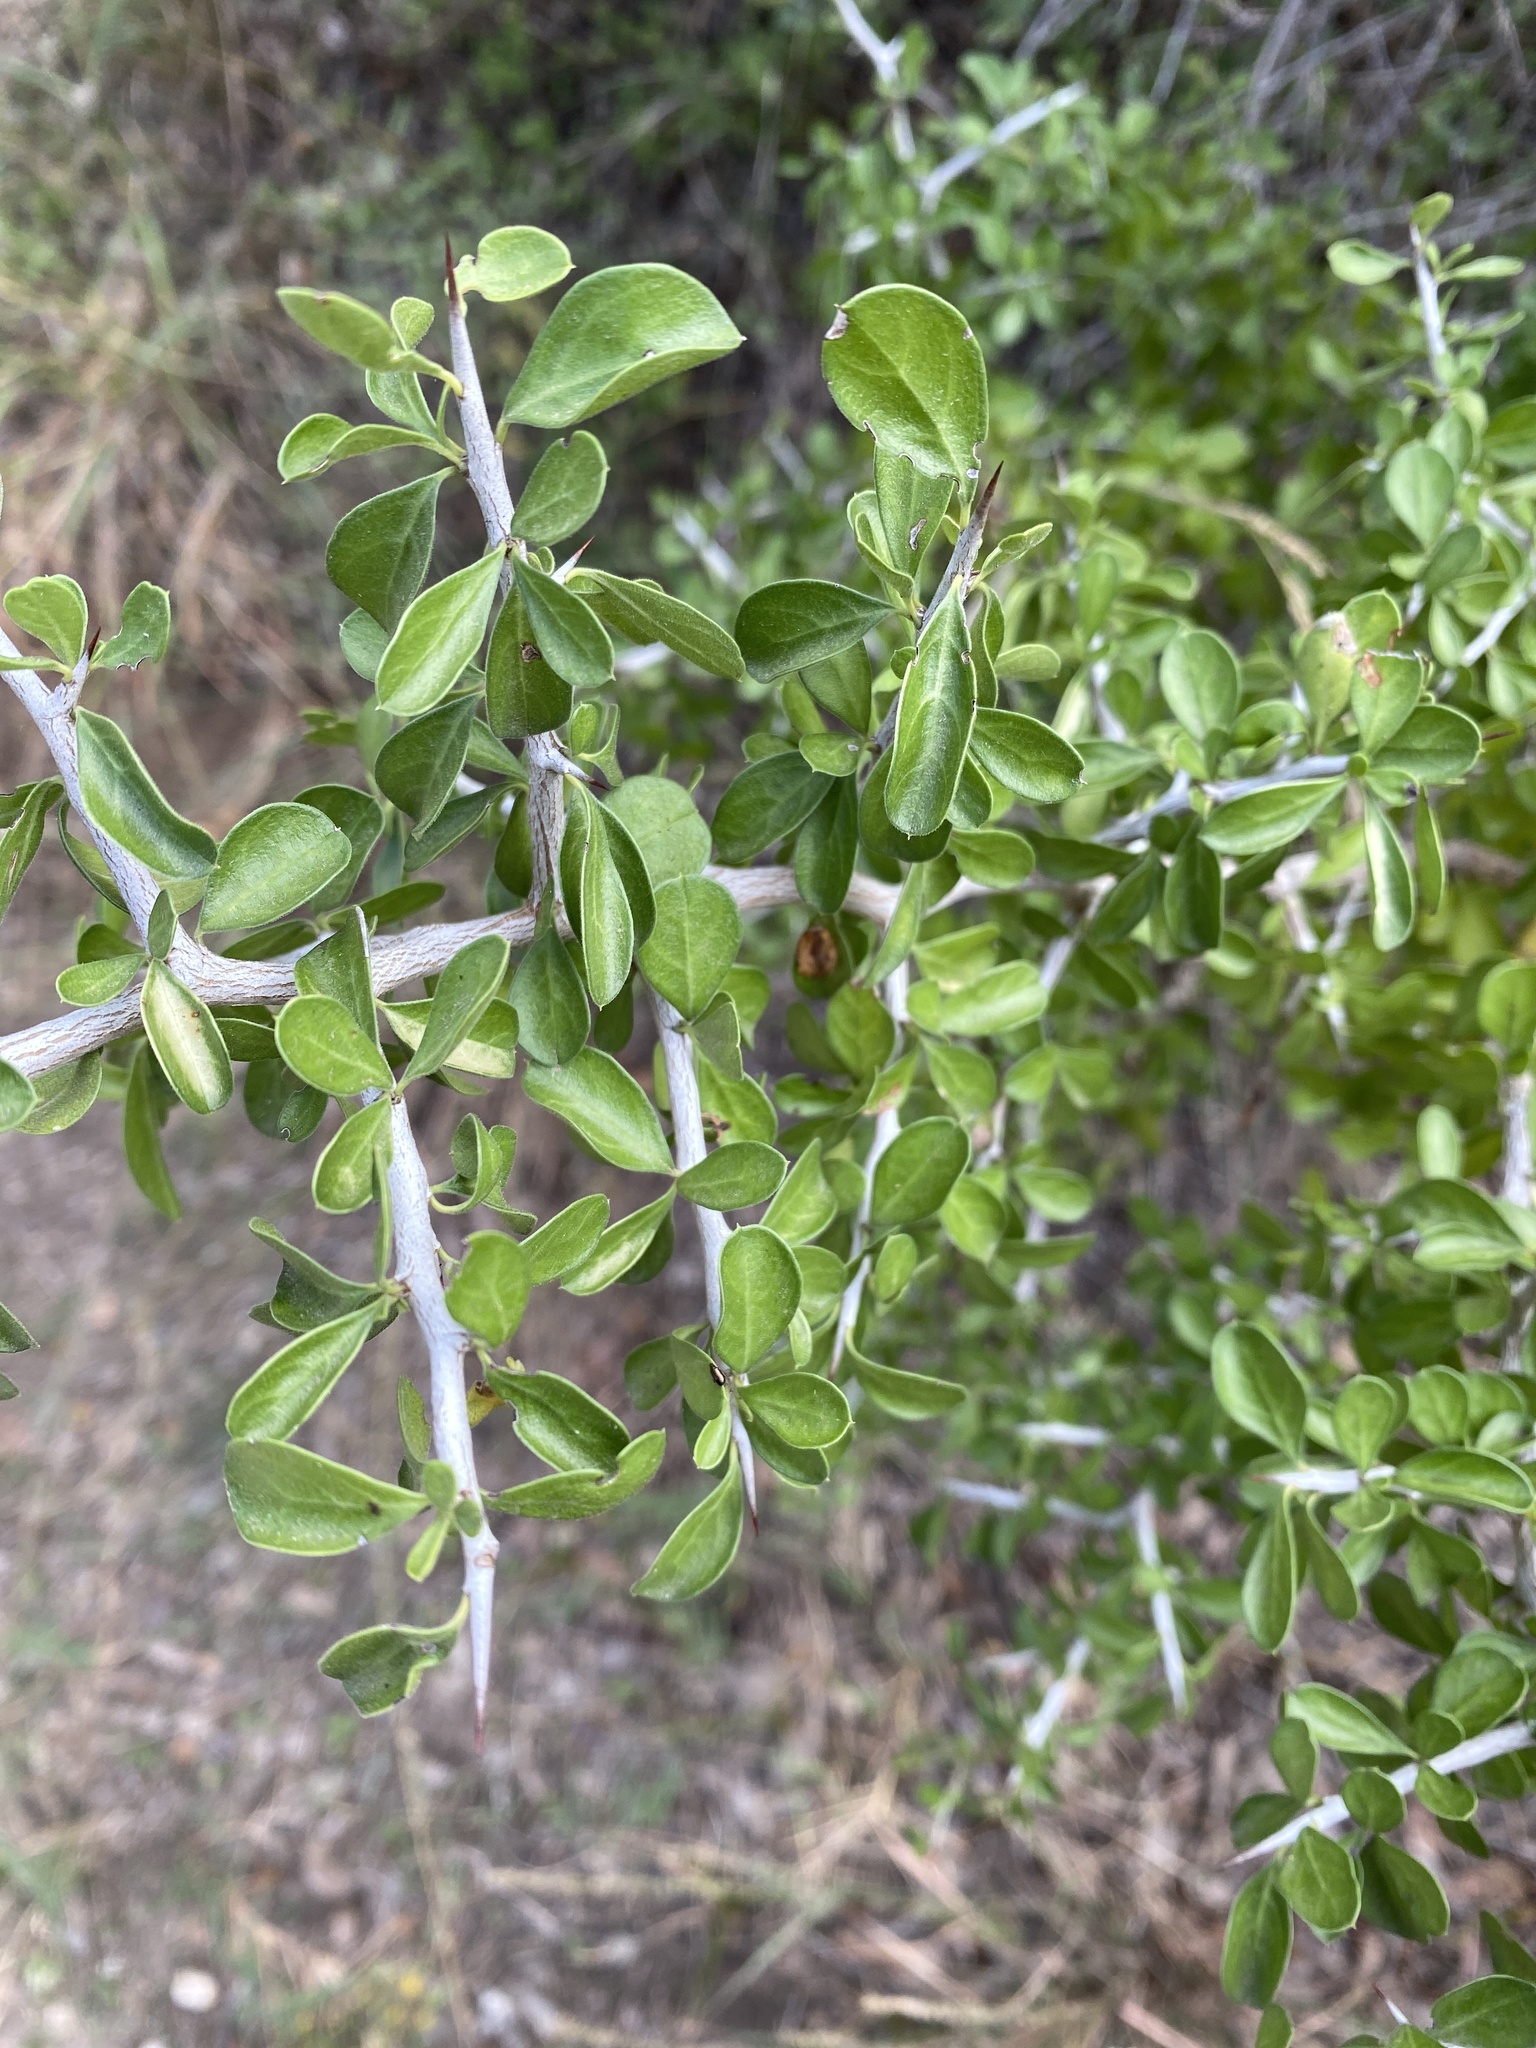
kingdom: Plantae
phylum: Tracheophyta
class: Magnoliopsida
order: Rosales
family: Rhamnaceae
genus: Condalia
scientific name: Condalia hookeri
